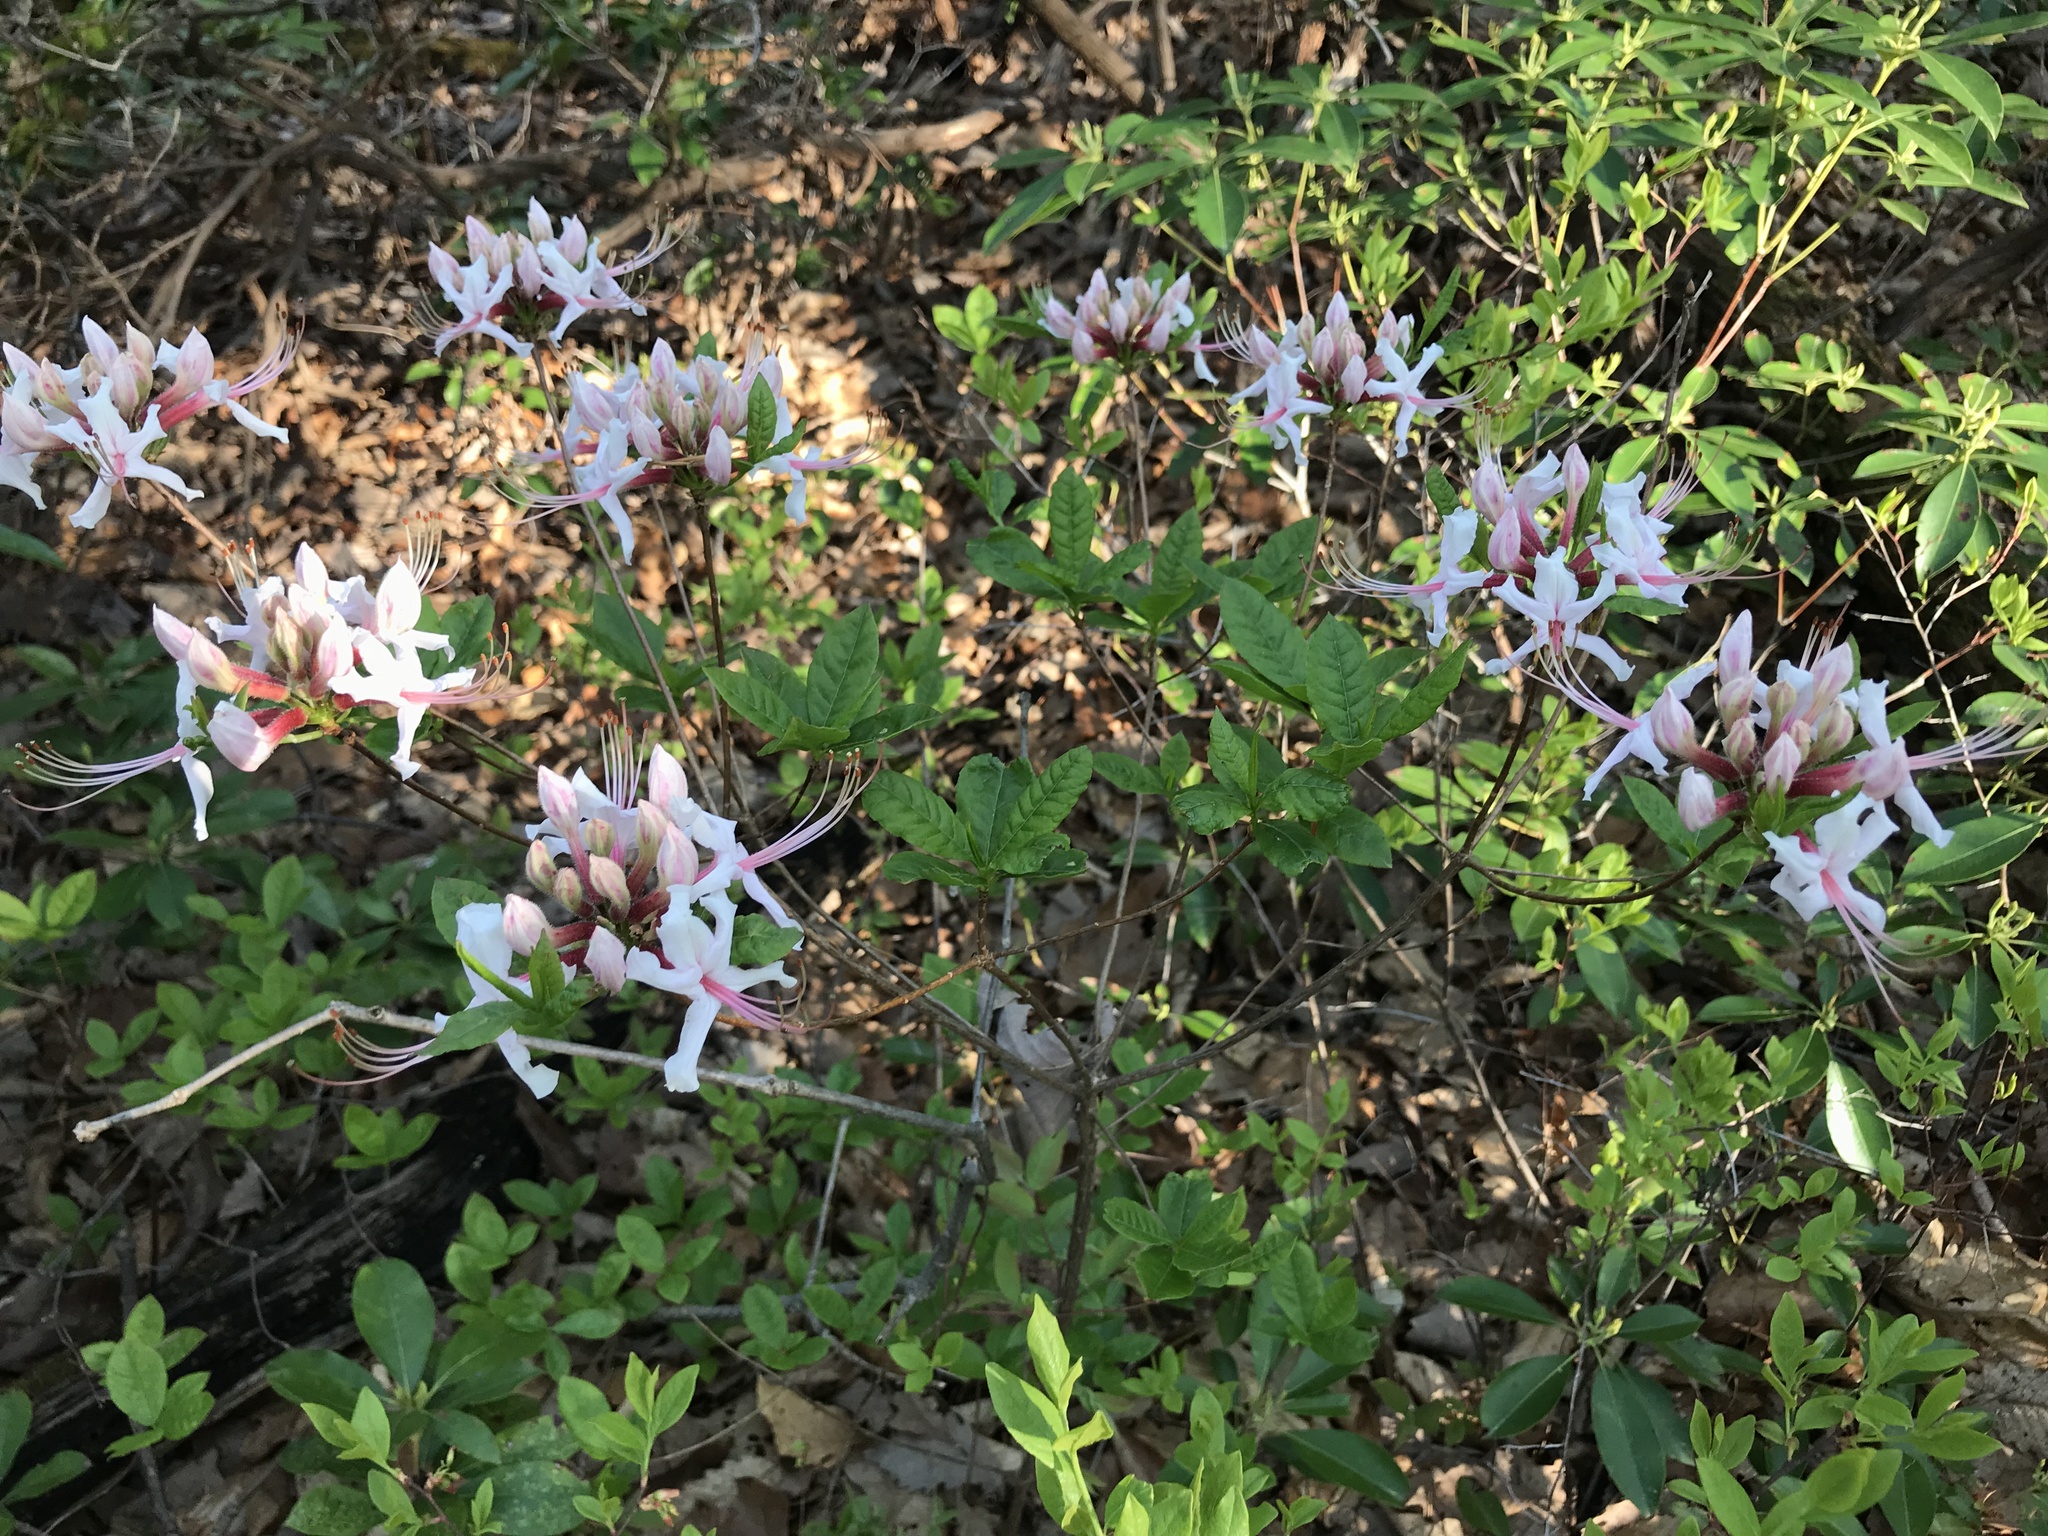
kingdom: Plantae
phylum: Tracheophyta
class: Magnoliopsida
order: Ericales
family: Ericaceae
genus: Rhododendron
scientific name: Rhododendron periclymenoides
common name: Election-pink
